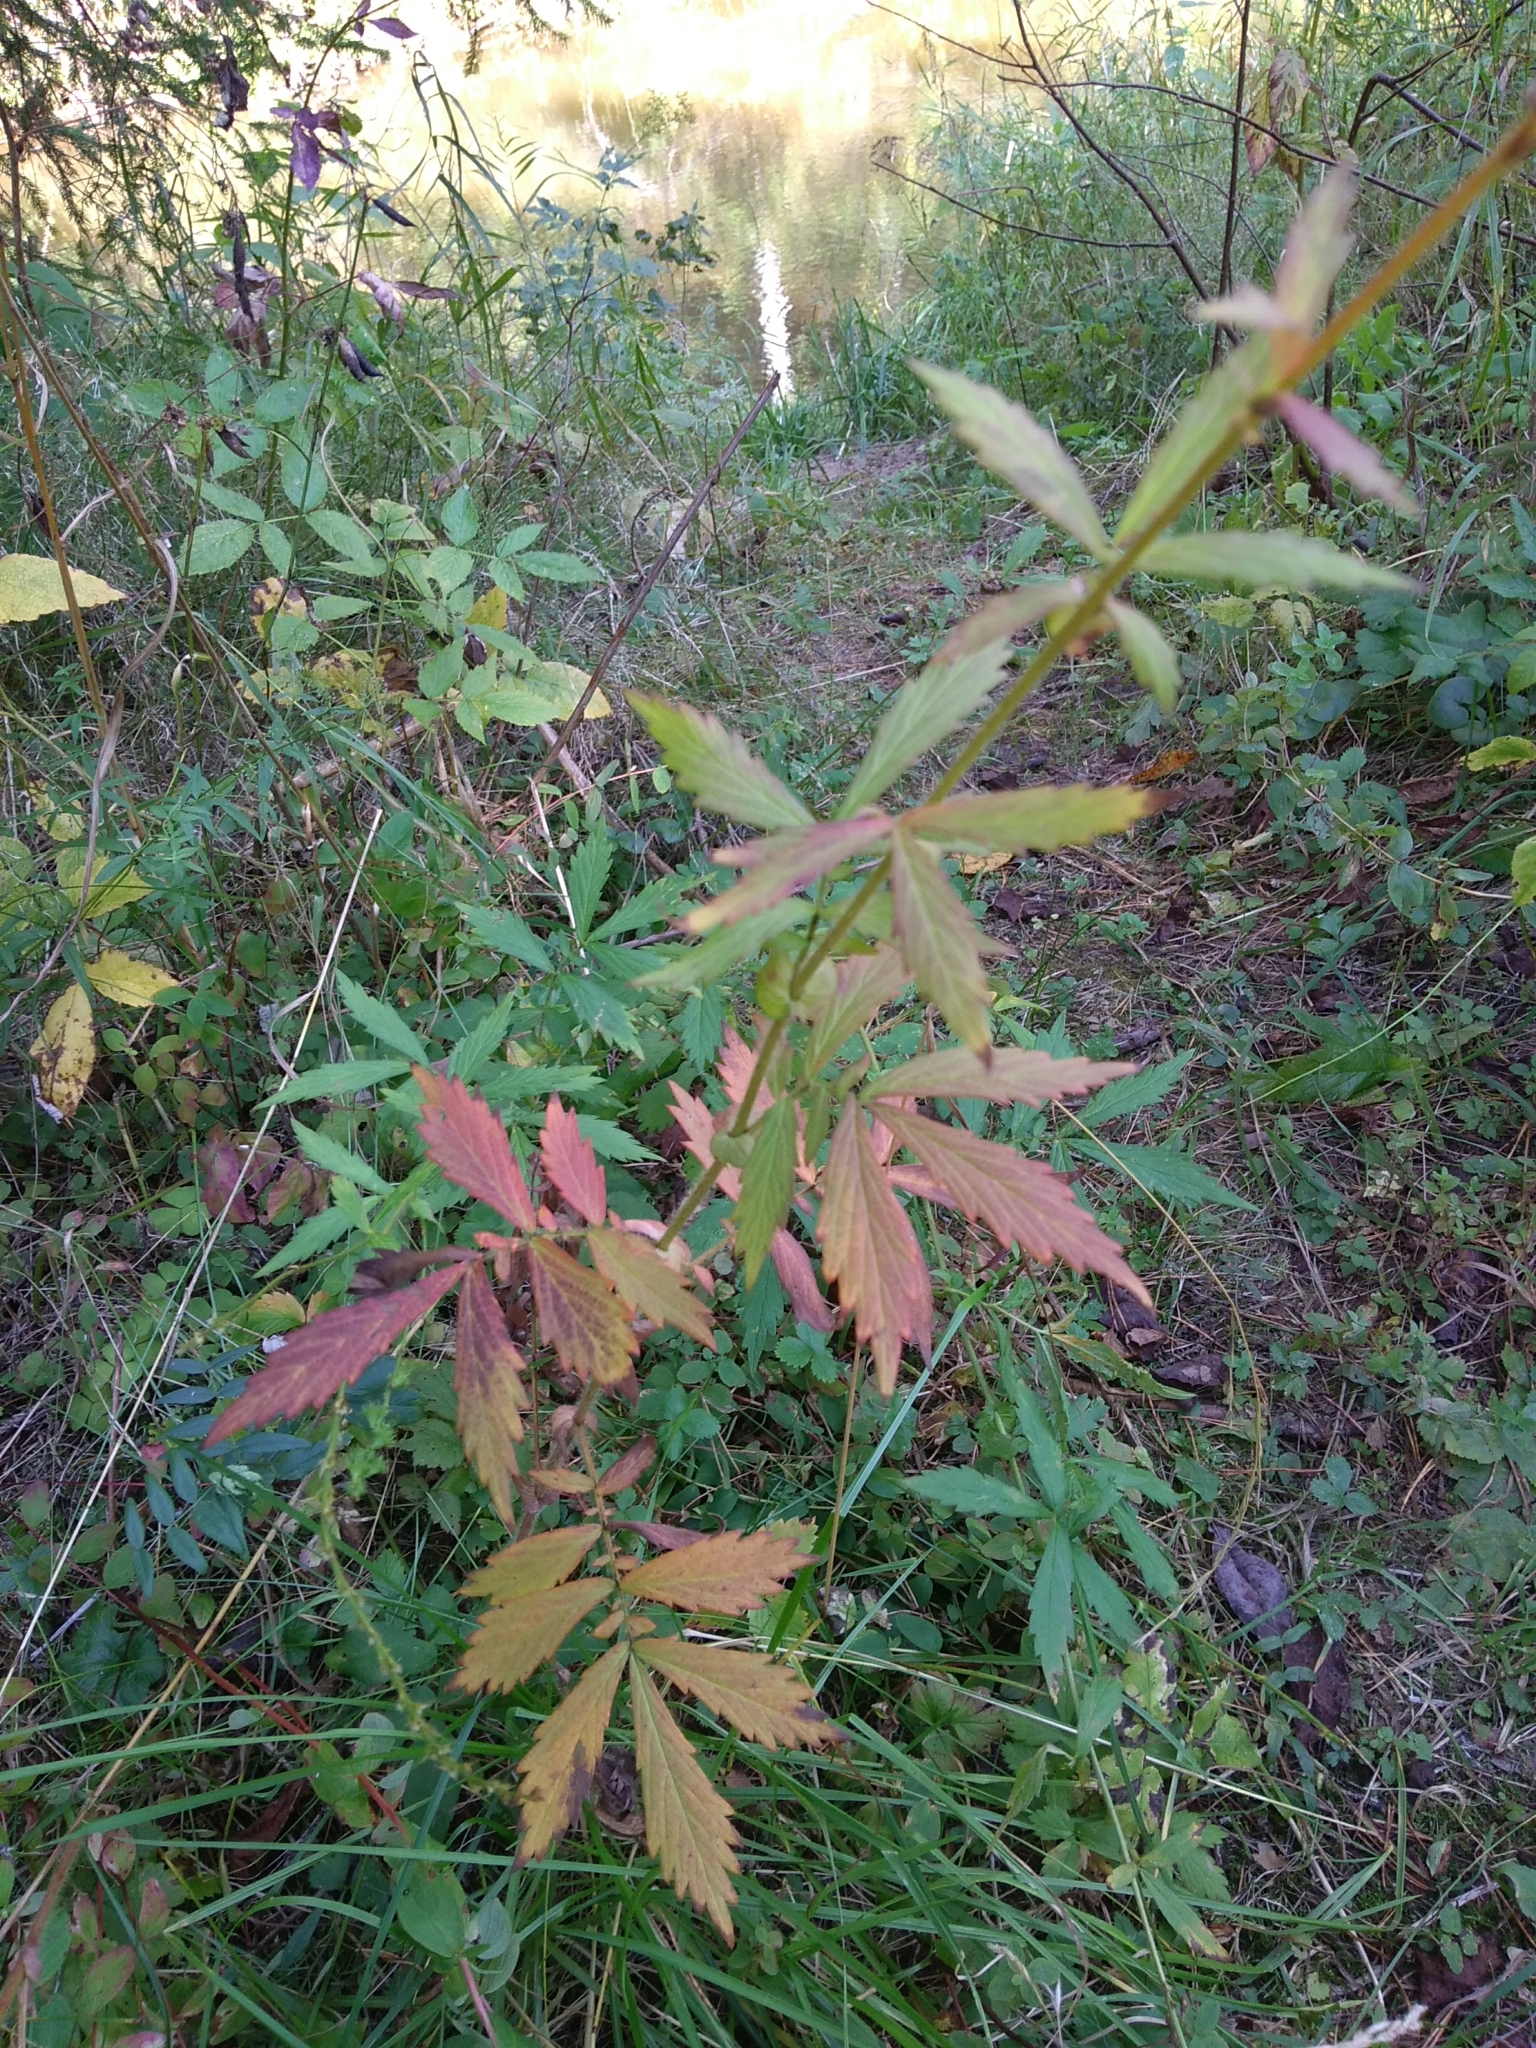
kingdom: Plantae
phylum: Tracheophyta
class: Magnoliopsida
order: Rosales
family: Rosaceae
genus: Agrimonia
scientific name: Agrimonia pilosa
